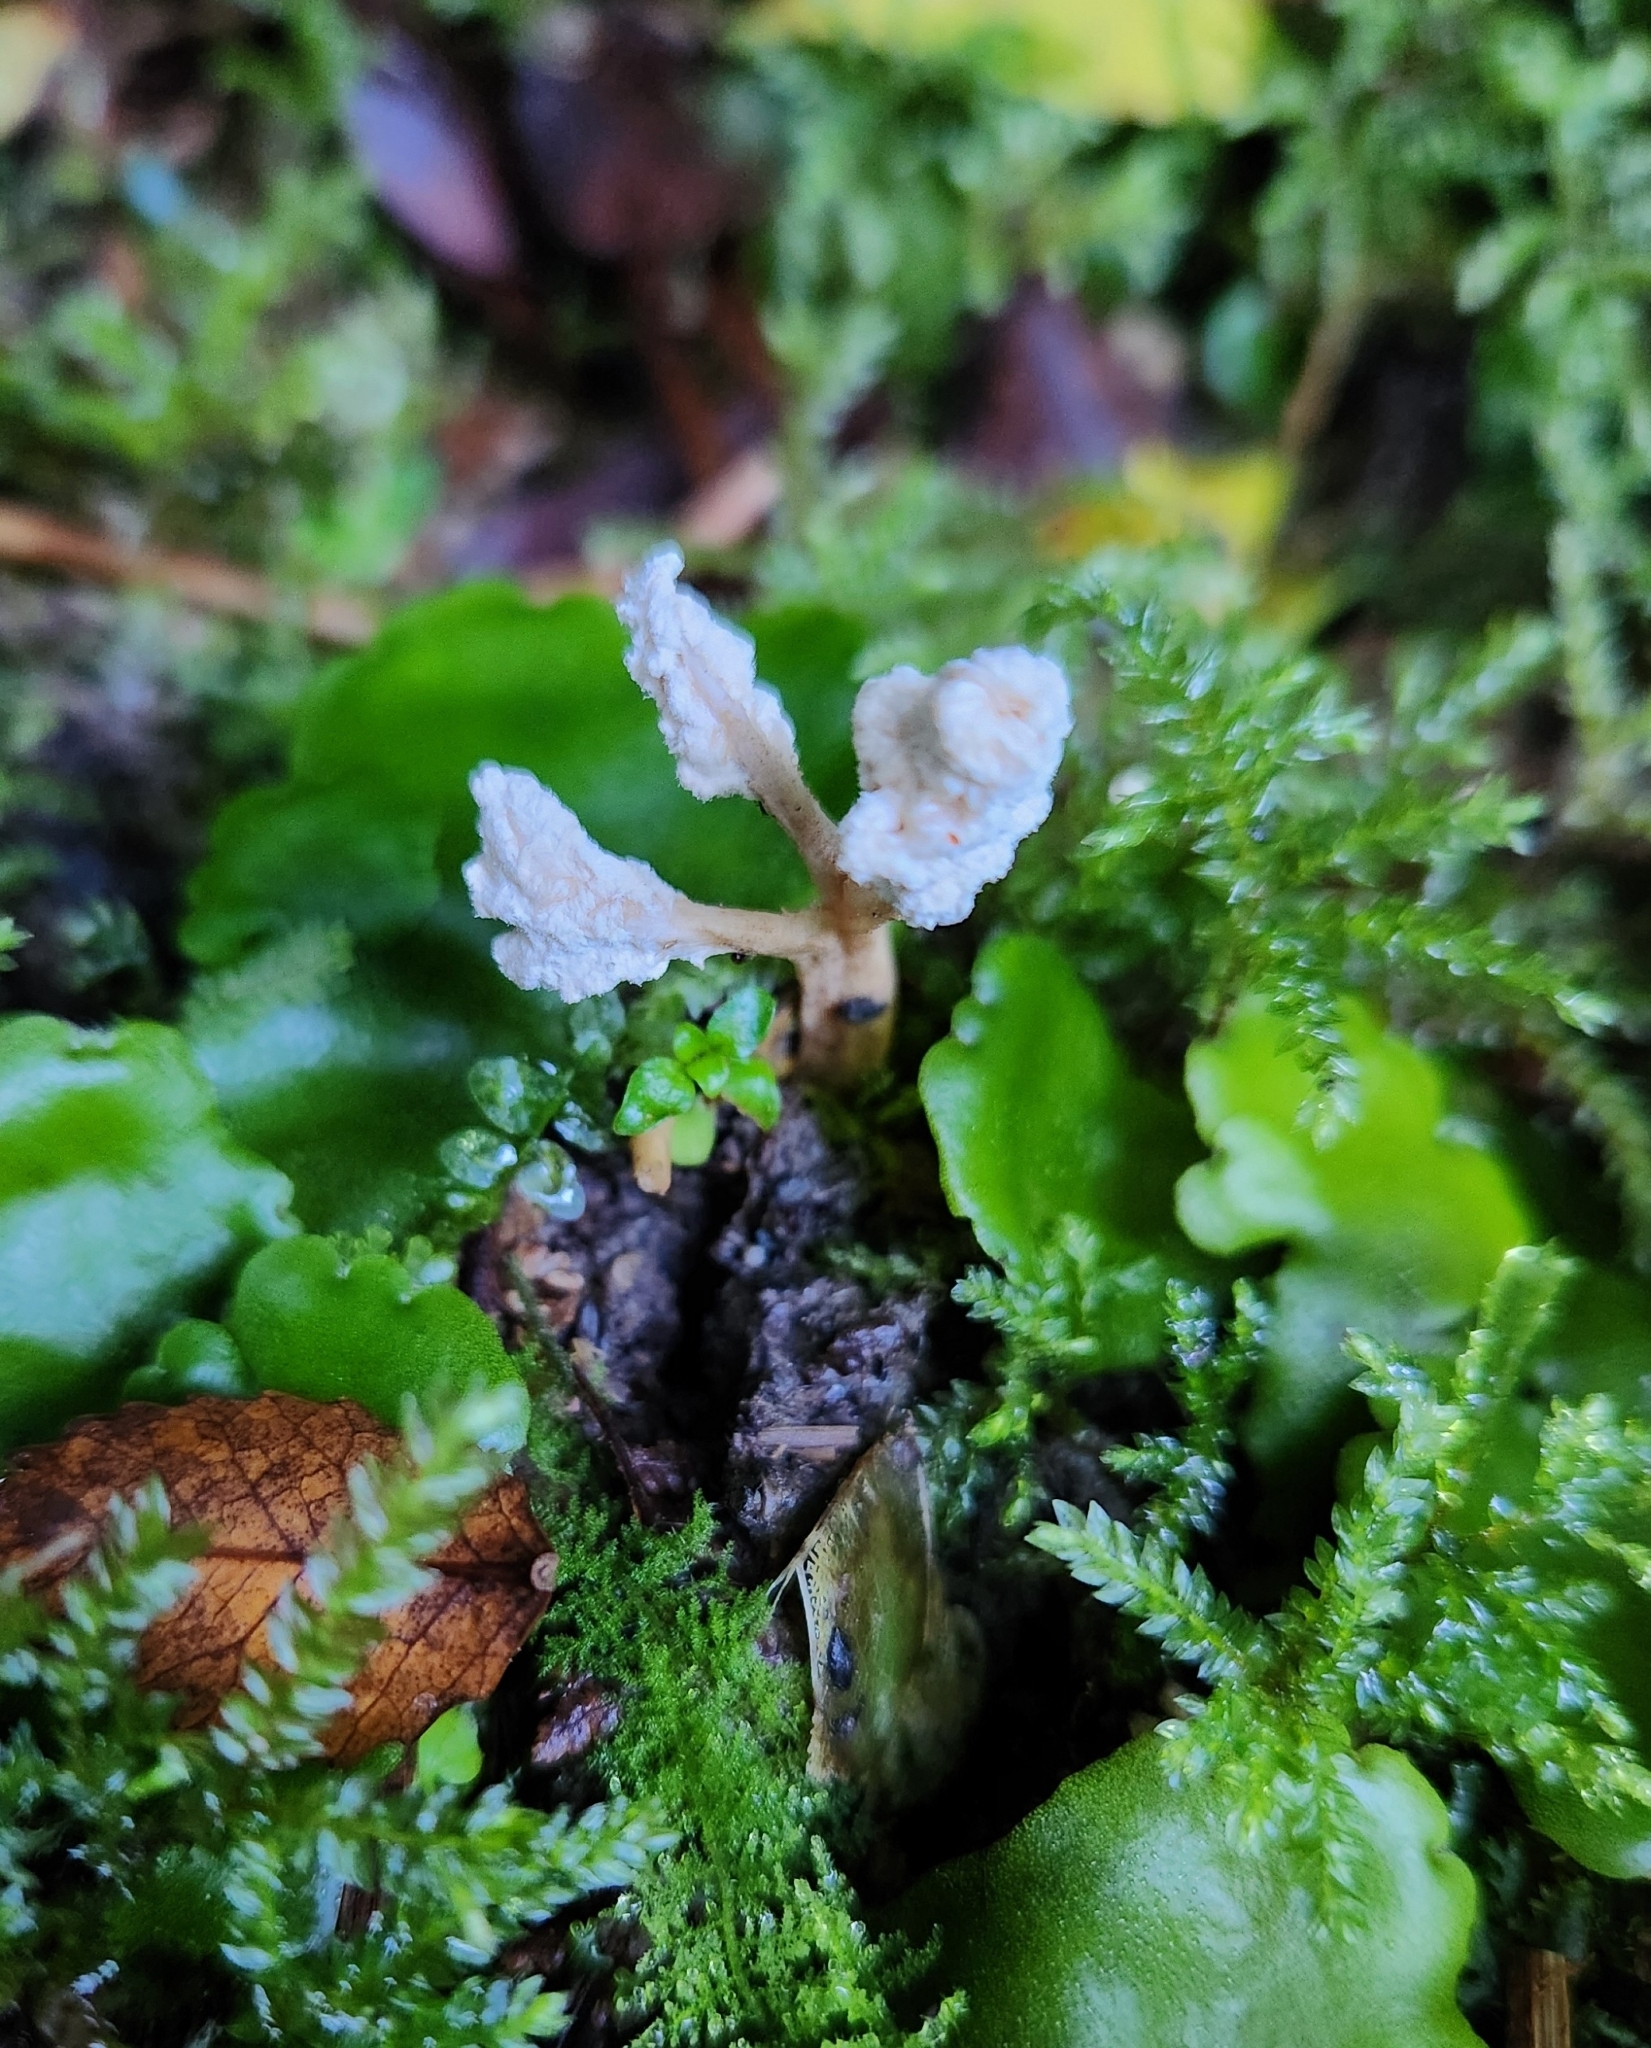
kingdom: Fungi
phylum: Ascomycota
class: Sordariomycetes
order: Hypocreales
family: Cordycipitaceae
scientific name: Cordycipitaceae
